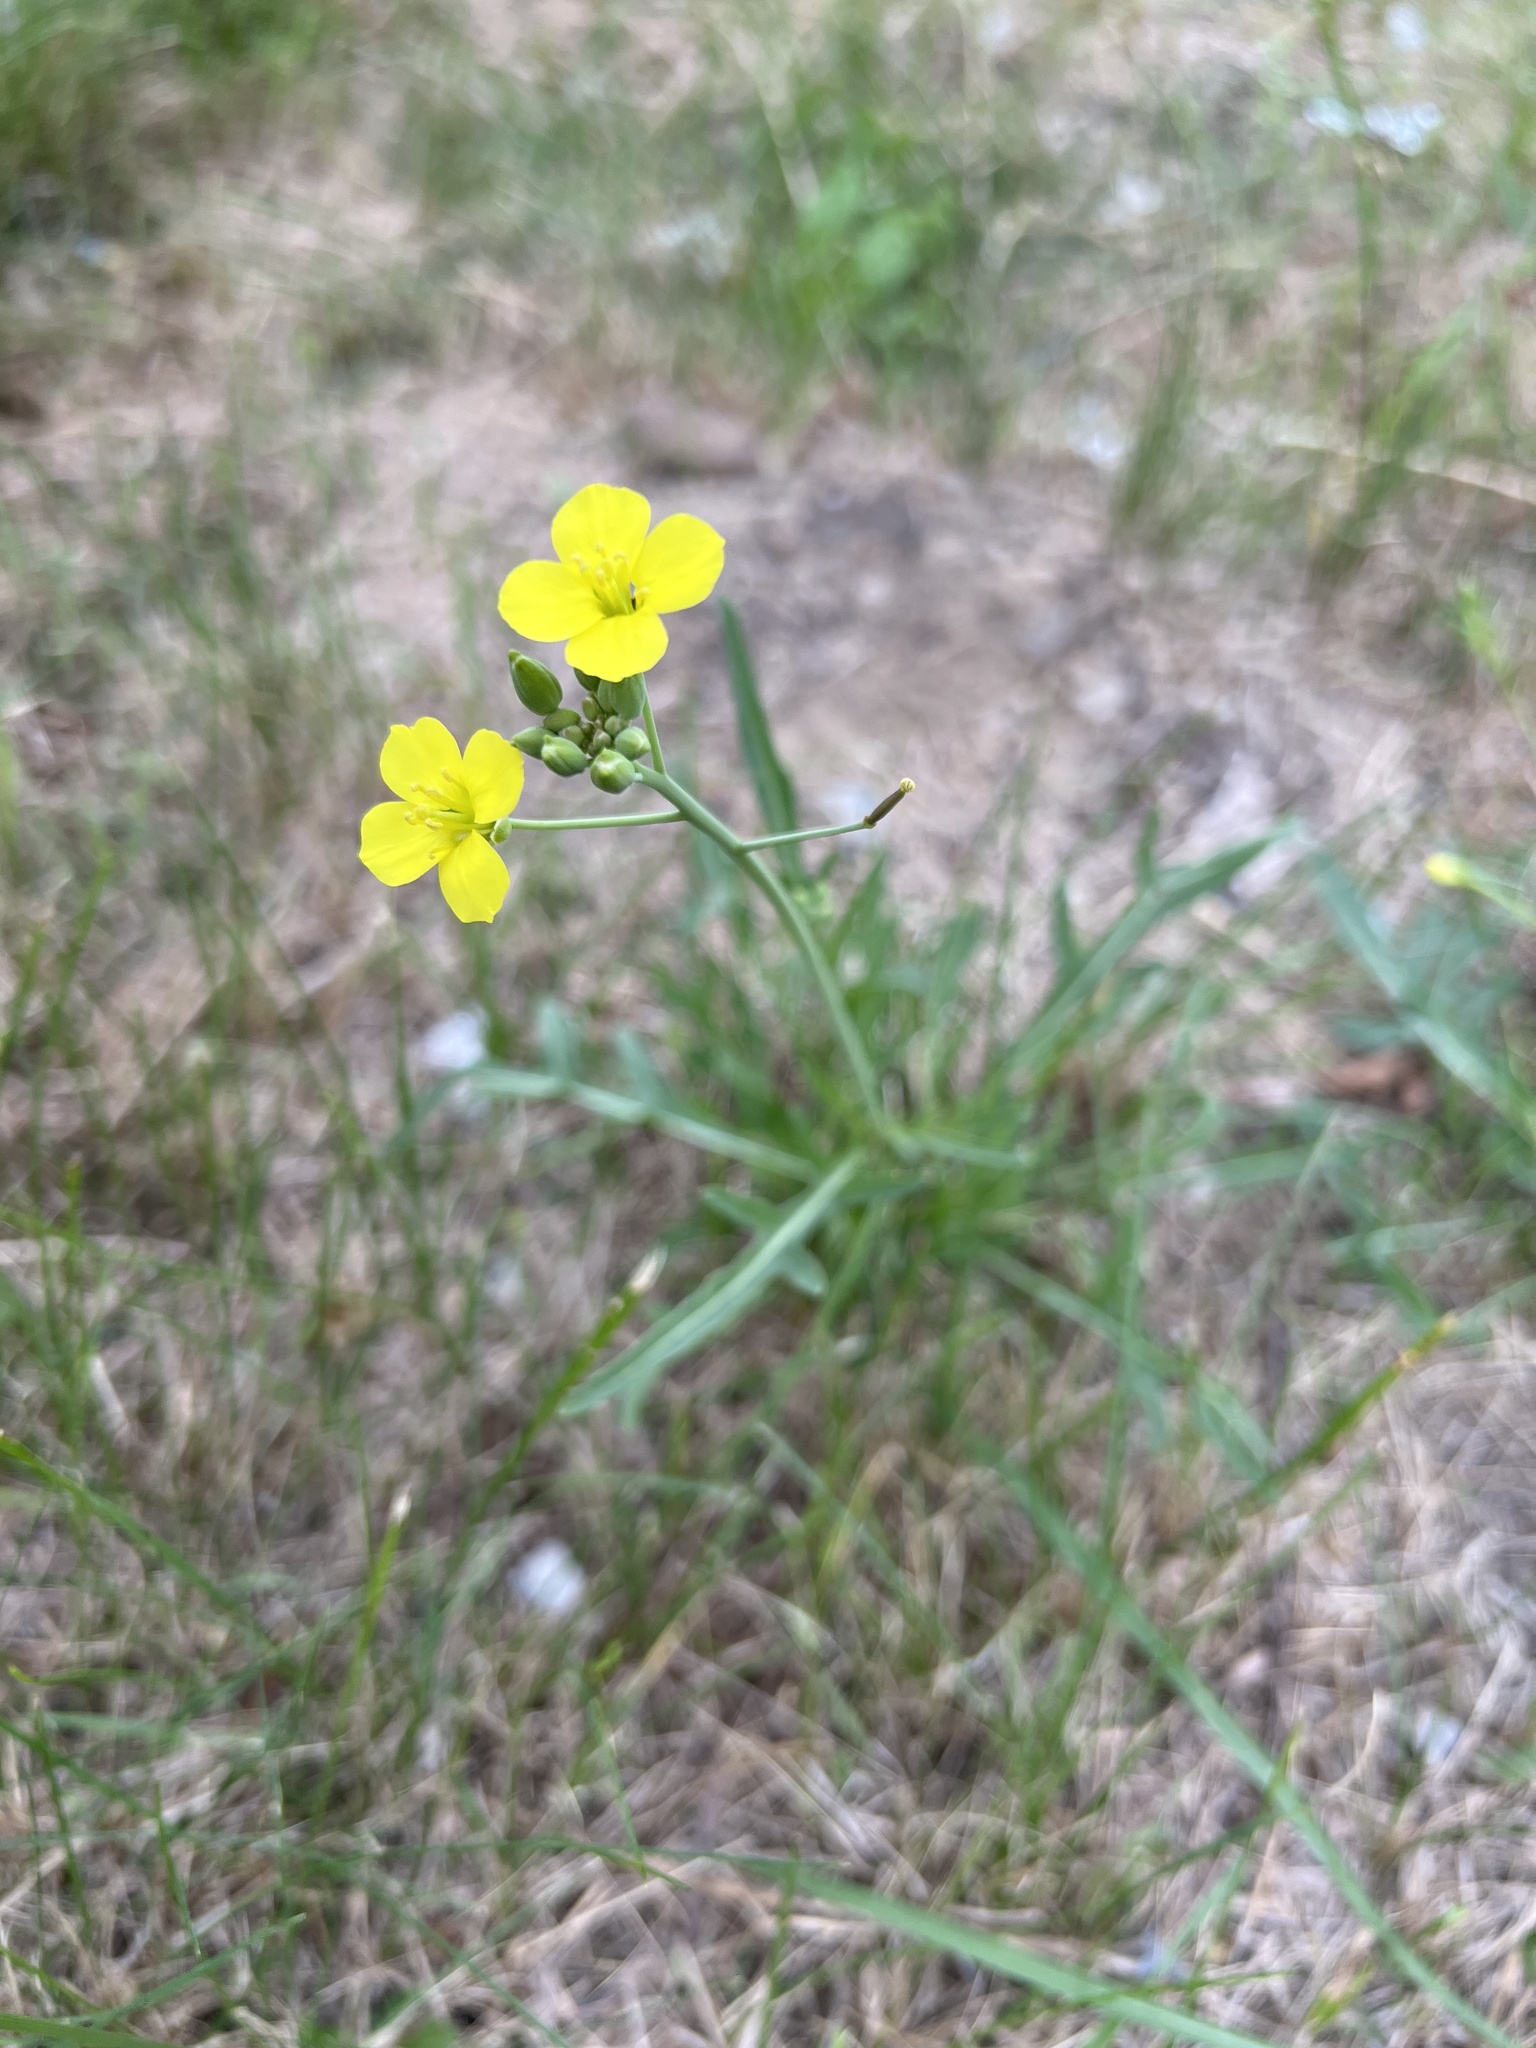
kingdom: Plantae
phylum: Tracheophyta
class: Magnoliopsida
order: Brassicales
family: Brassicaceae
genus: Diplotaxis
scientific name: Diplotaxis tenuifolia
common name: Perennial wall-rocket
